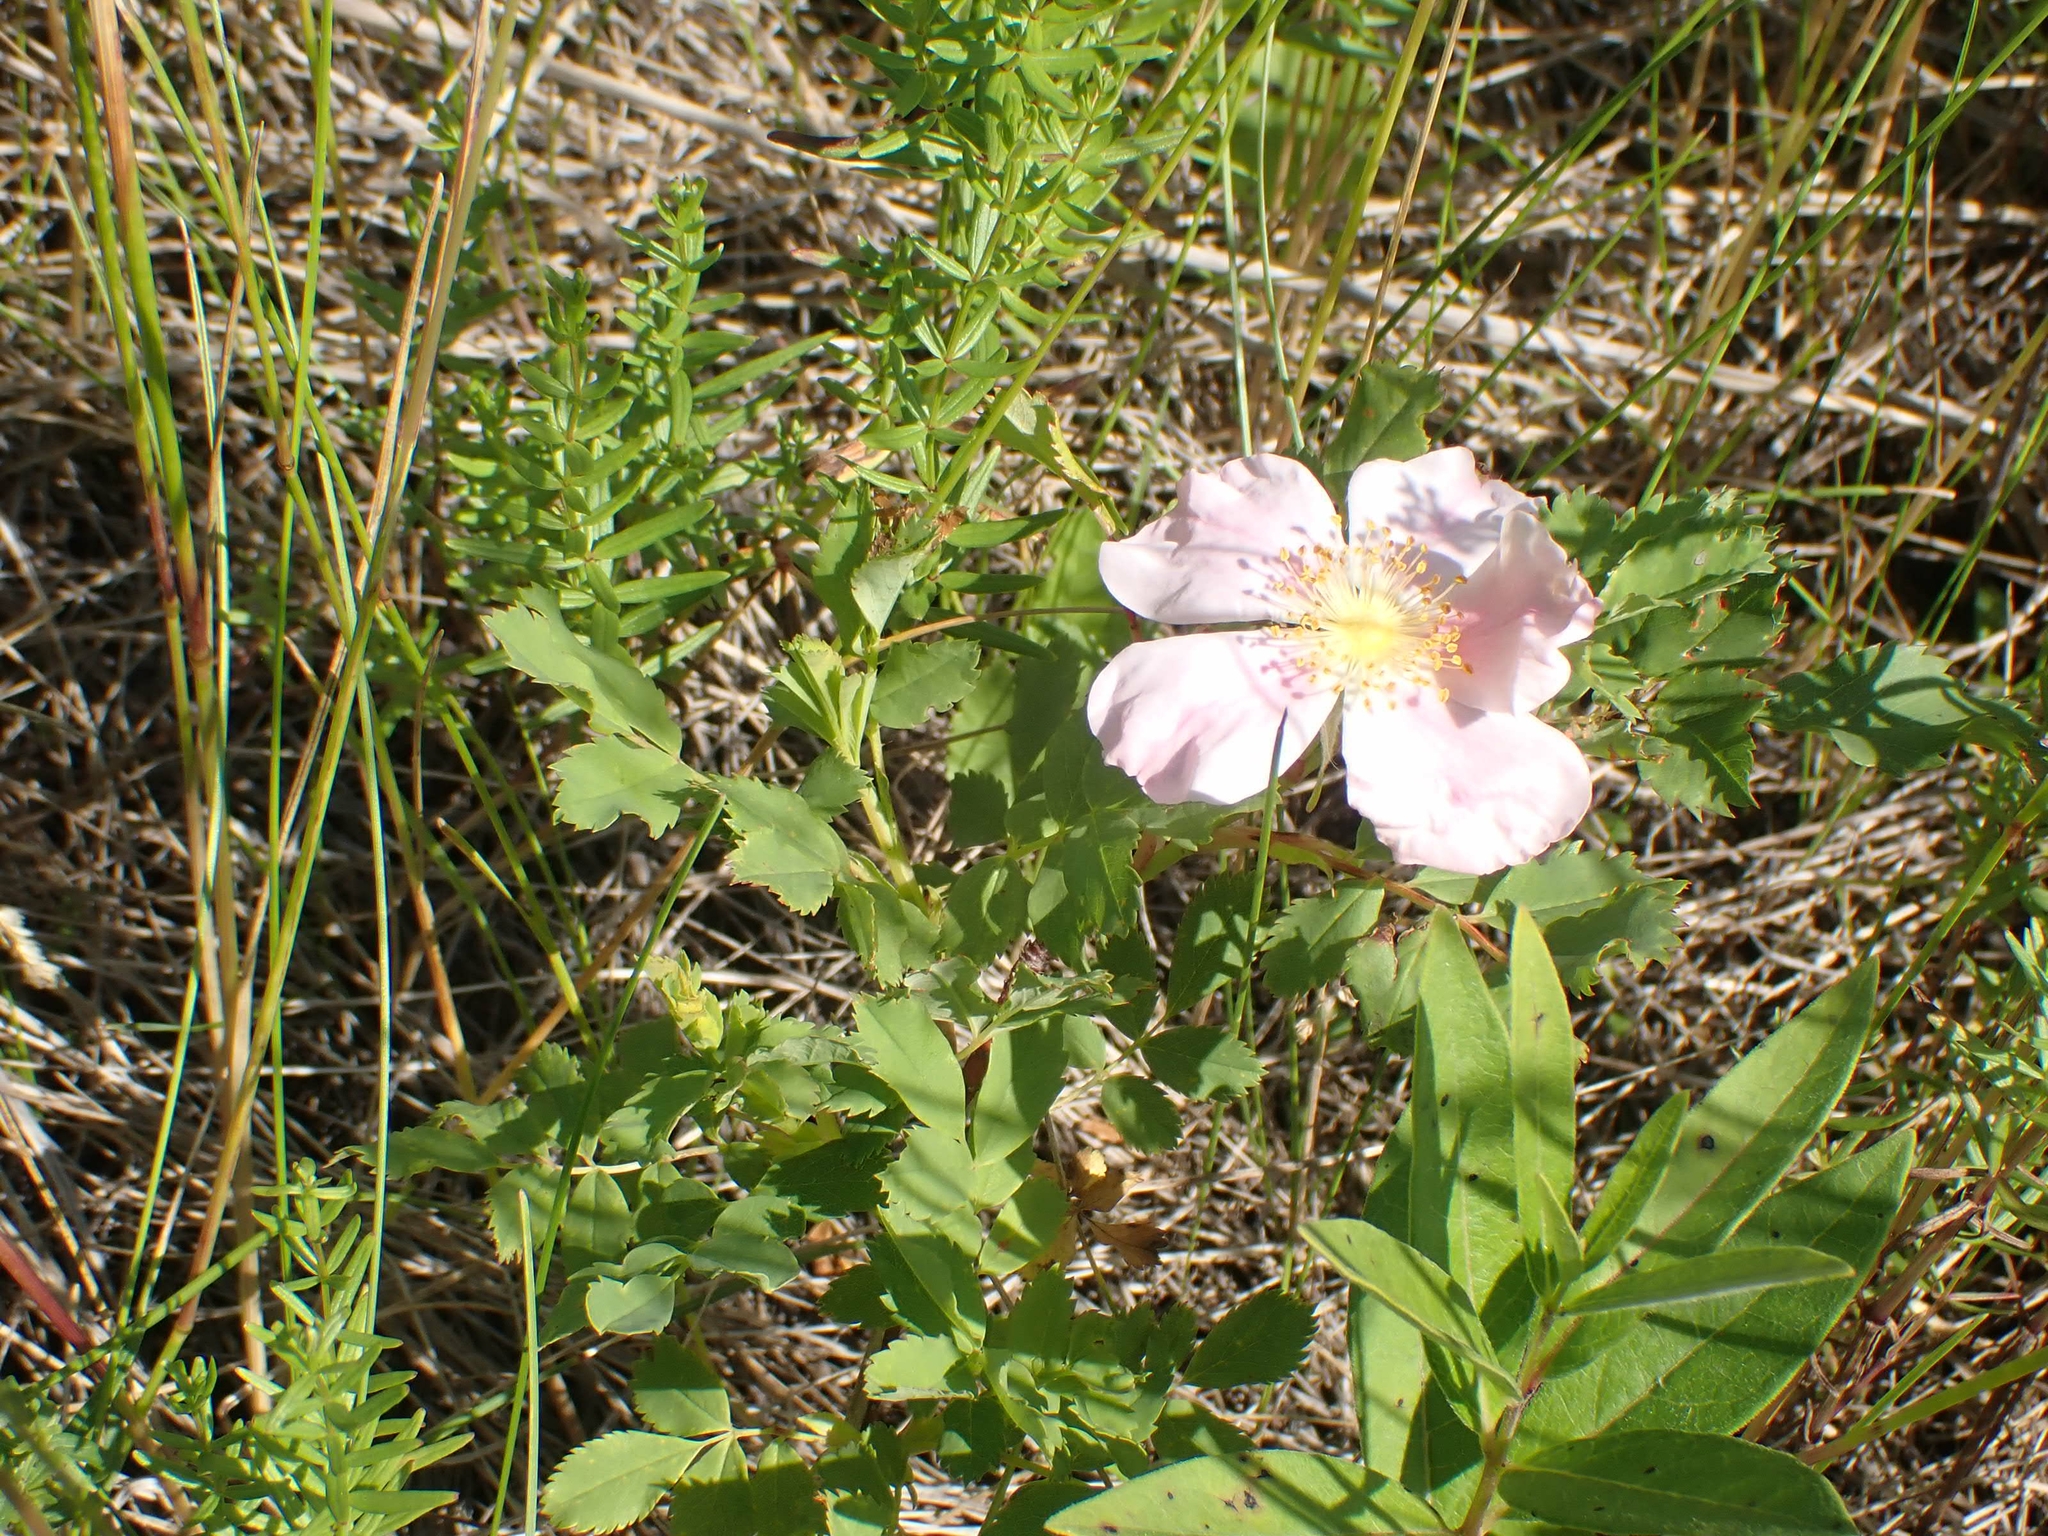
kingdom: Plantae
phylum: Tracheophyta
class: Magnoliopsida
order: Rosales
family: Rosaceae
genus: Rosa
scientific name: Rosa arkansana
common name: Prairie rose
